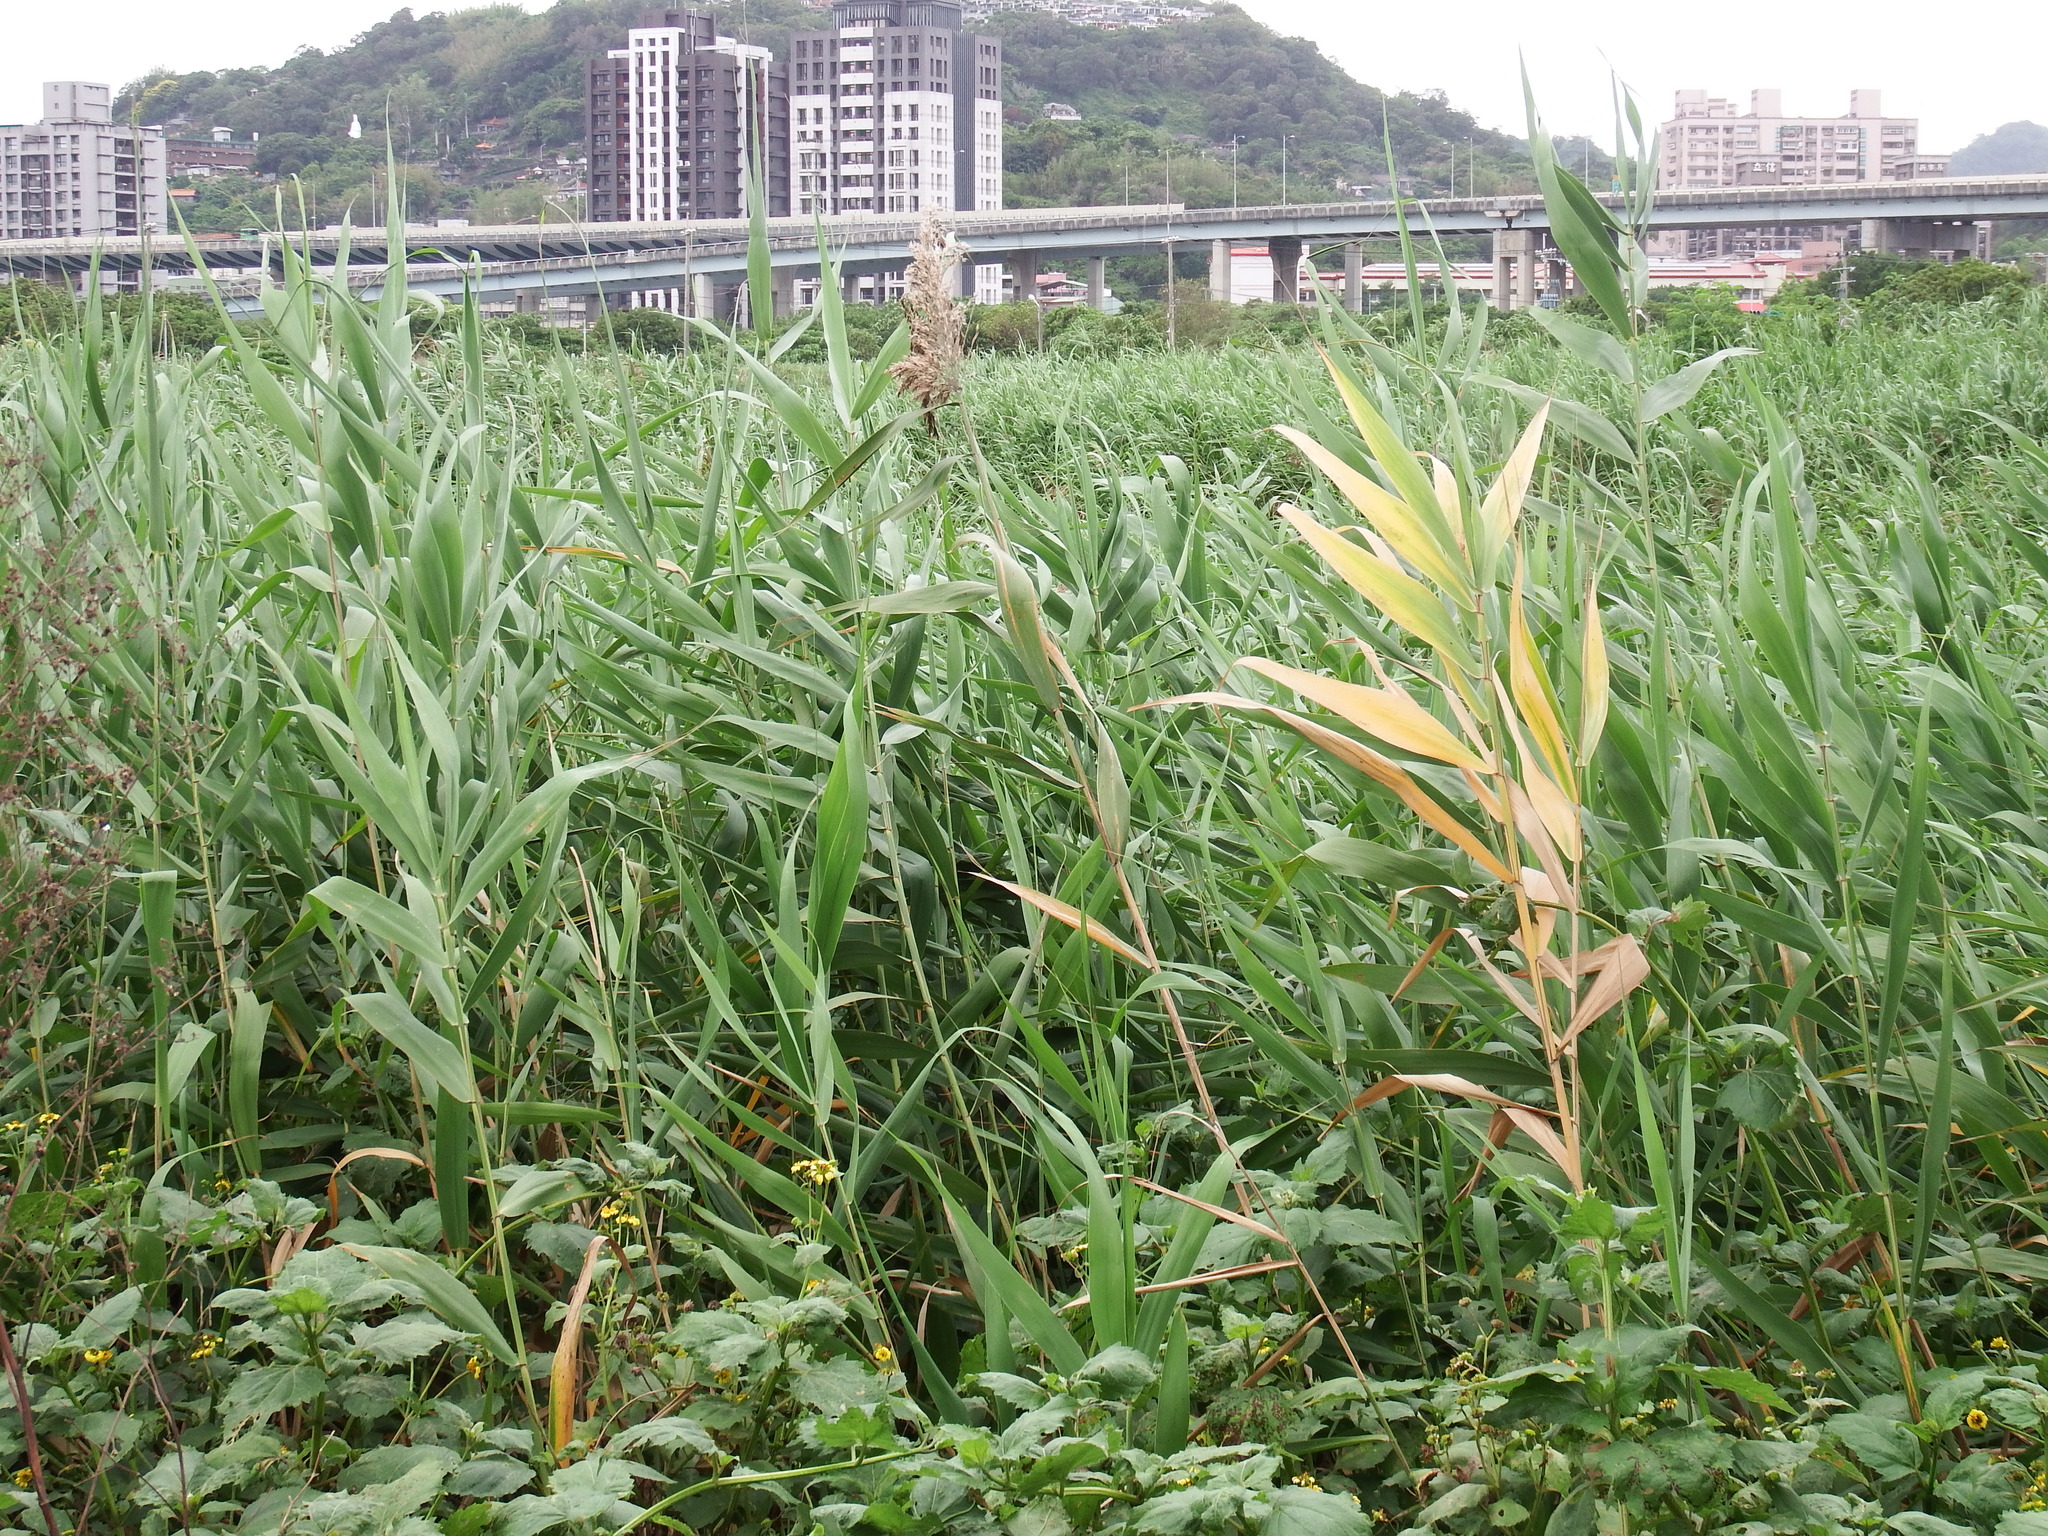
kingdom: Plantae
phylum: Tracheophyta
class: Liliopsida
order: Poales
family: Poaceae
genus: Phragmites
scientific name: Phragmites australis
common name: Common reed
